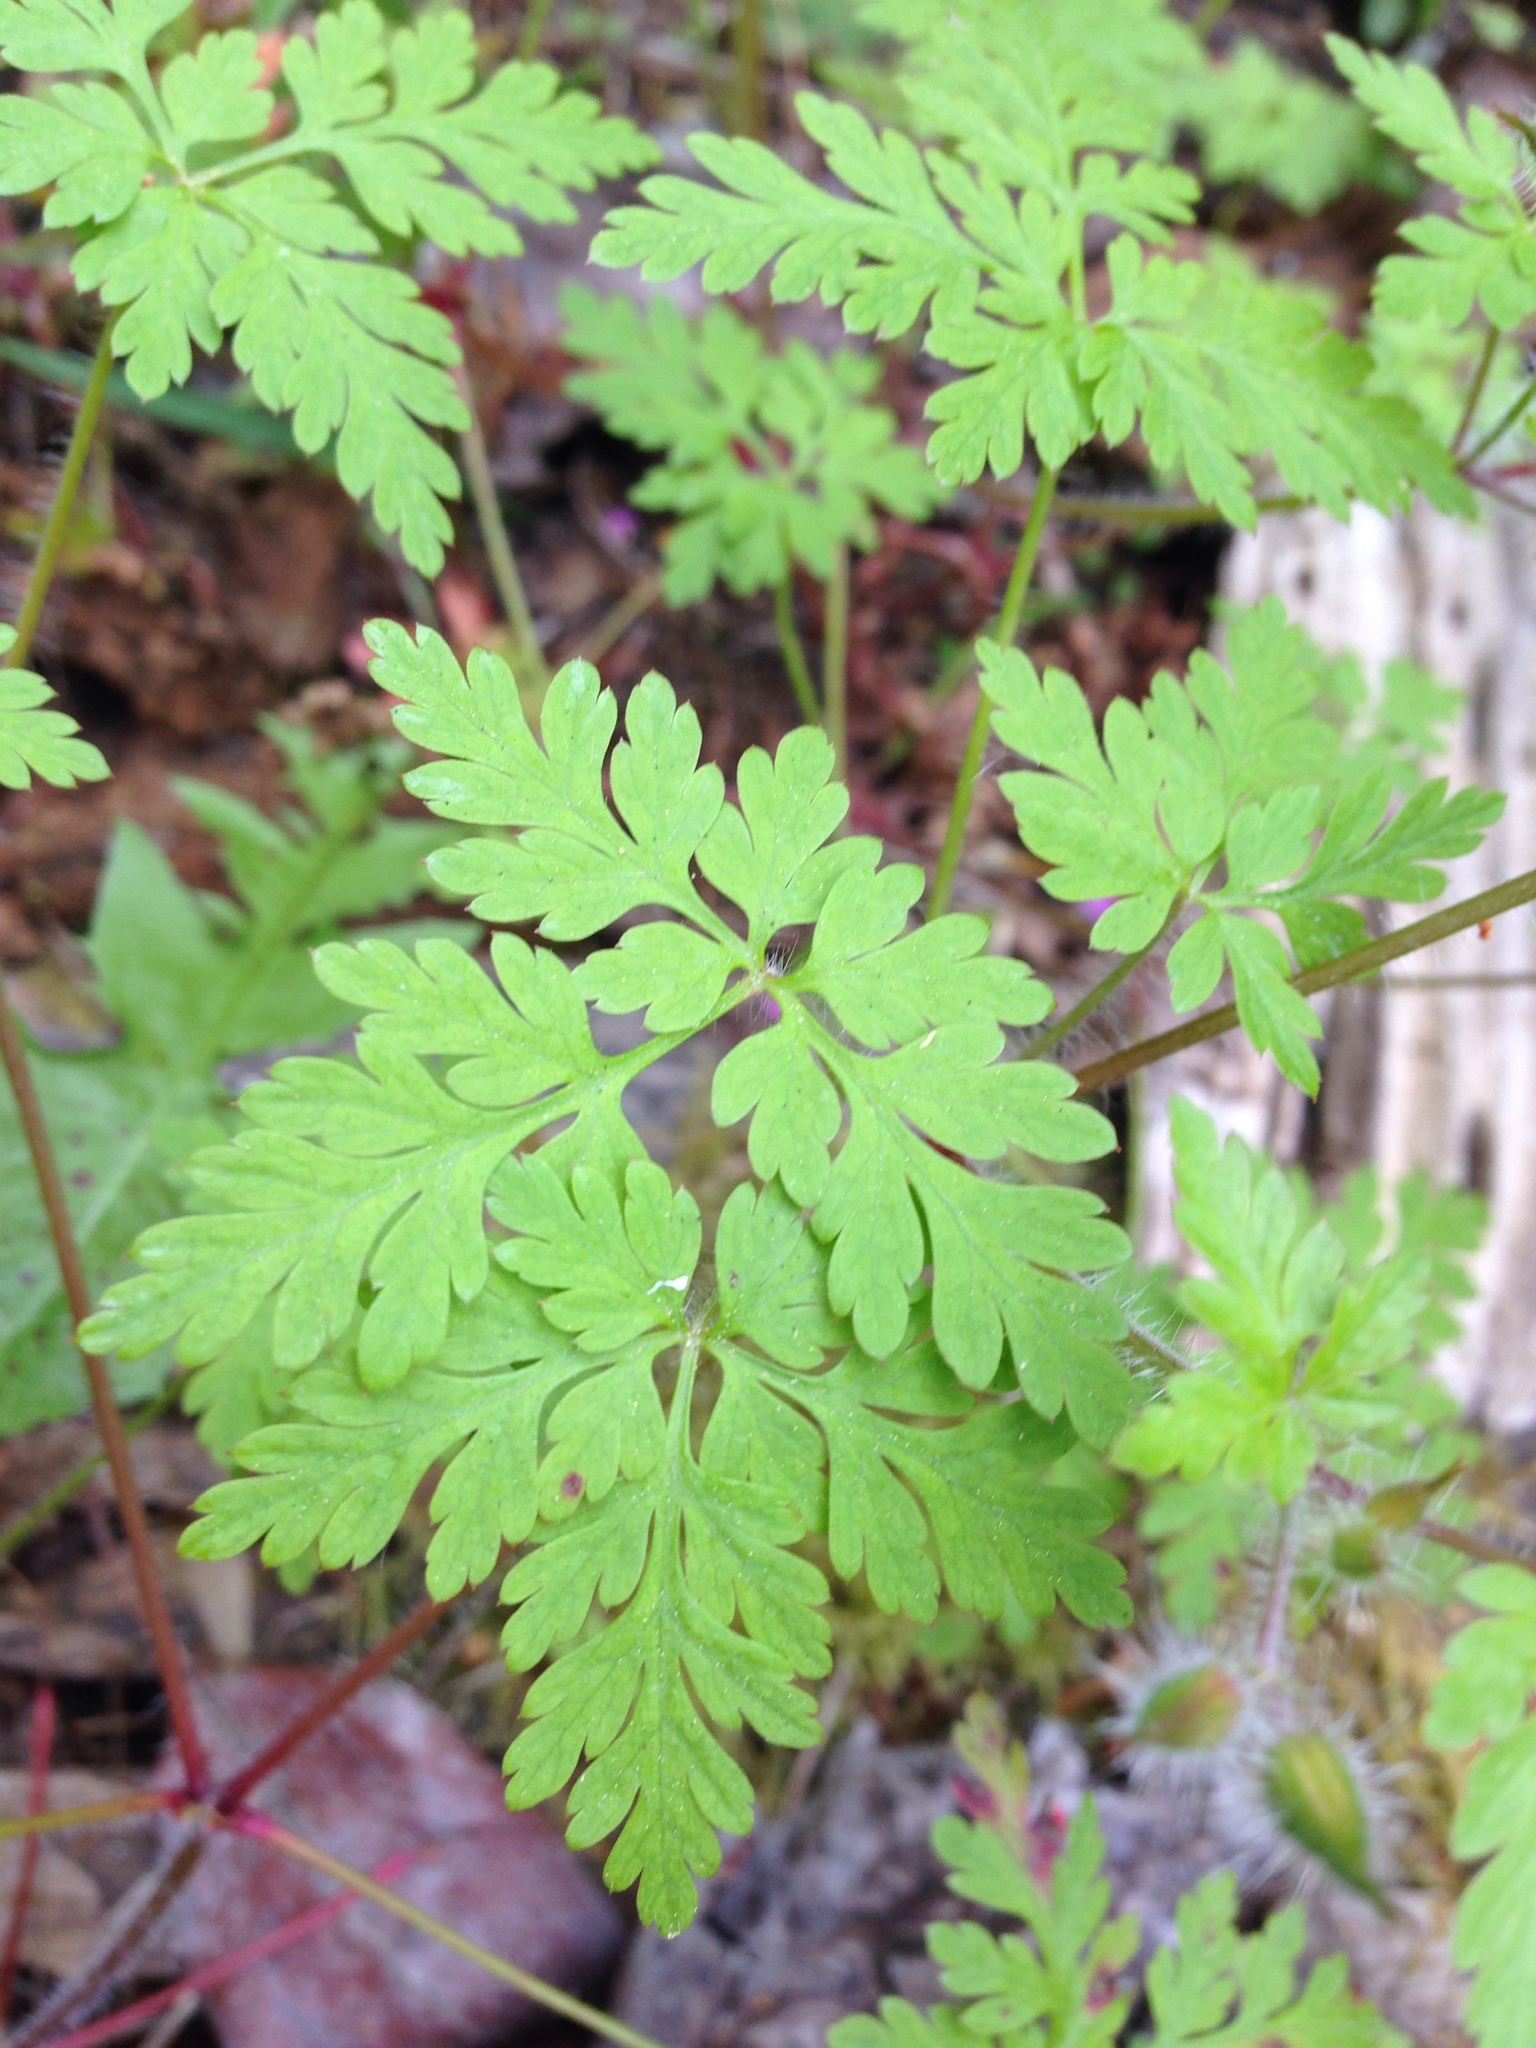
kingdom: Plantae
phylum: Tracheophyta
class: Magnoliopsida
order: Geraniales
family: Geraniaceae
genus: Geranium
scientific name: Geranium robertianum
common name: Herb-robert
